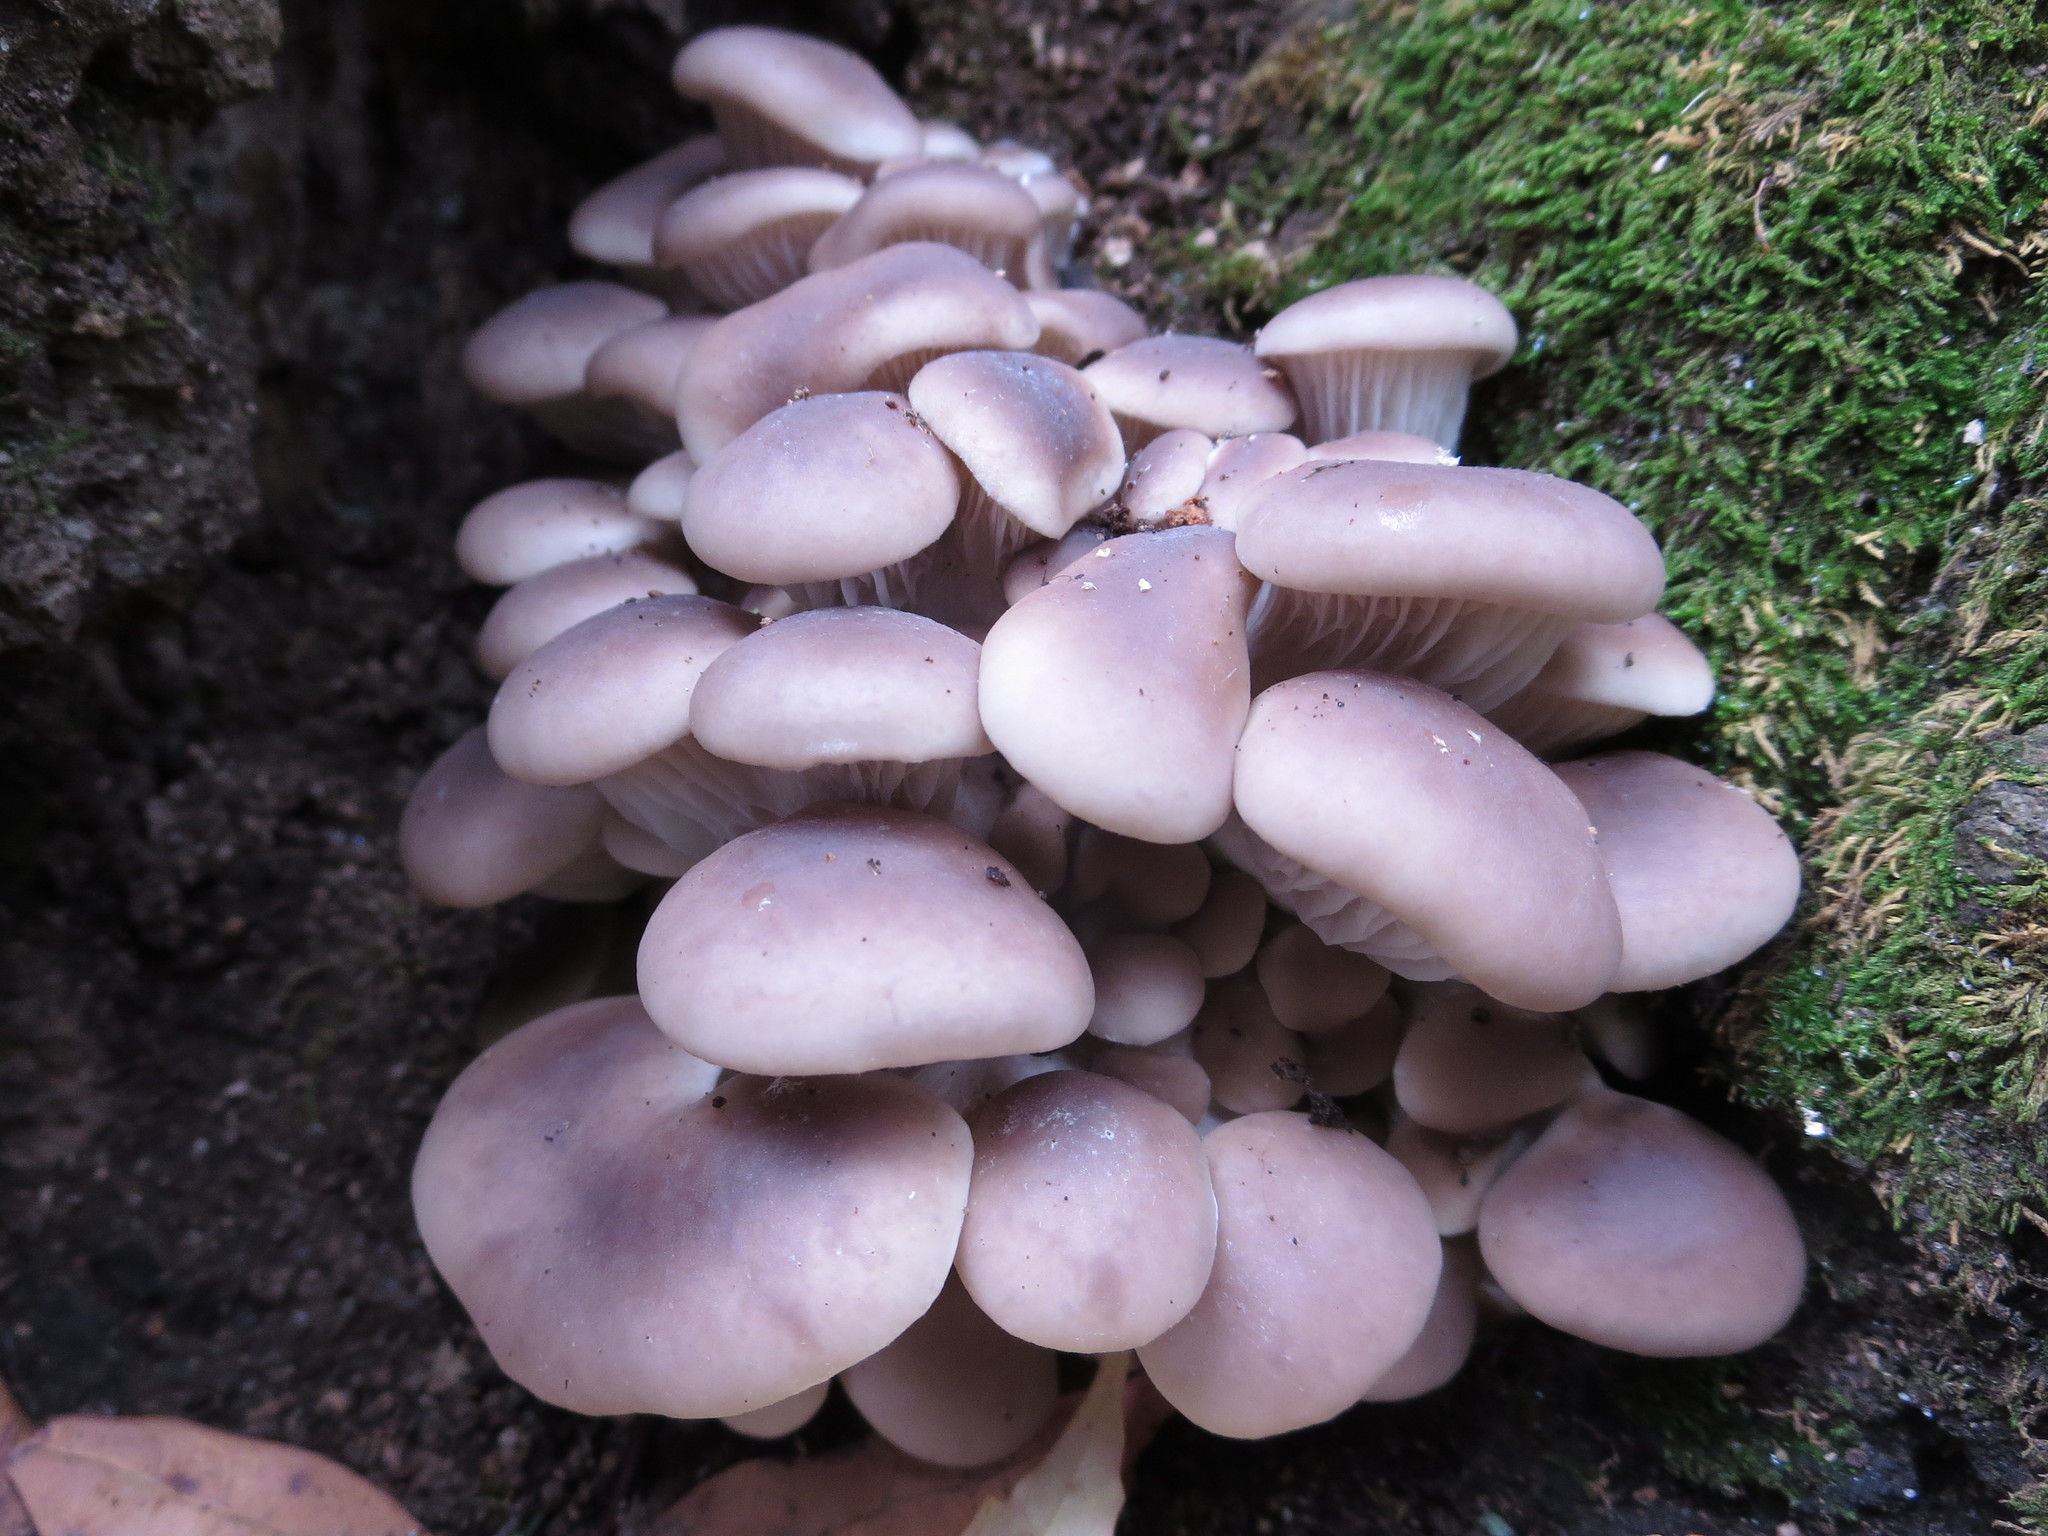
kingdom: Fungi
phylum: Basidiomycota
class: Agaricomycetes
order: Agaricales
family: Pleurotaceae
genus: Pleurotus
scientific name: Pleurotus ostreatus
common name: Oyster mushroom
